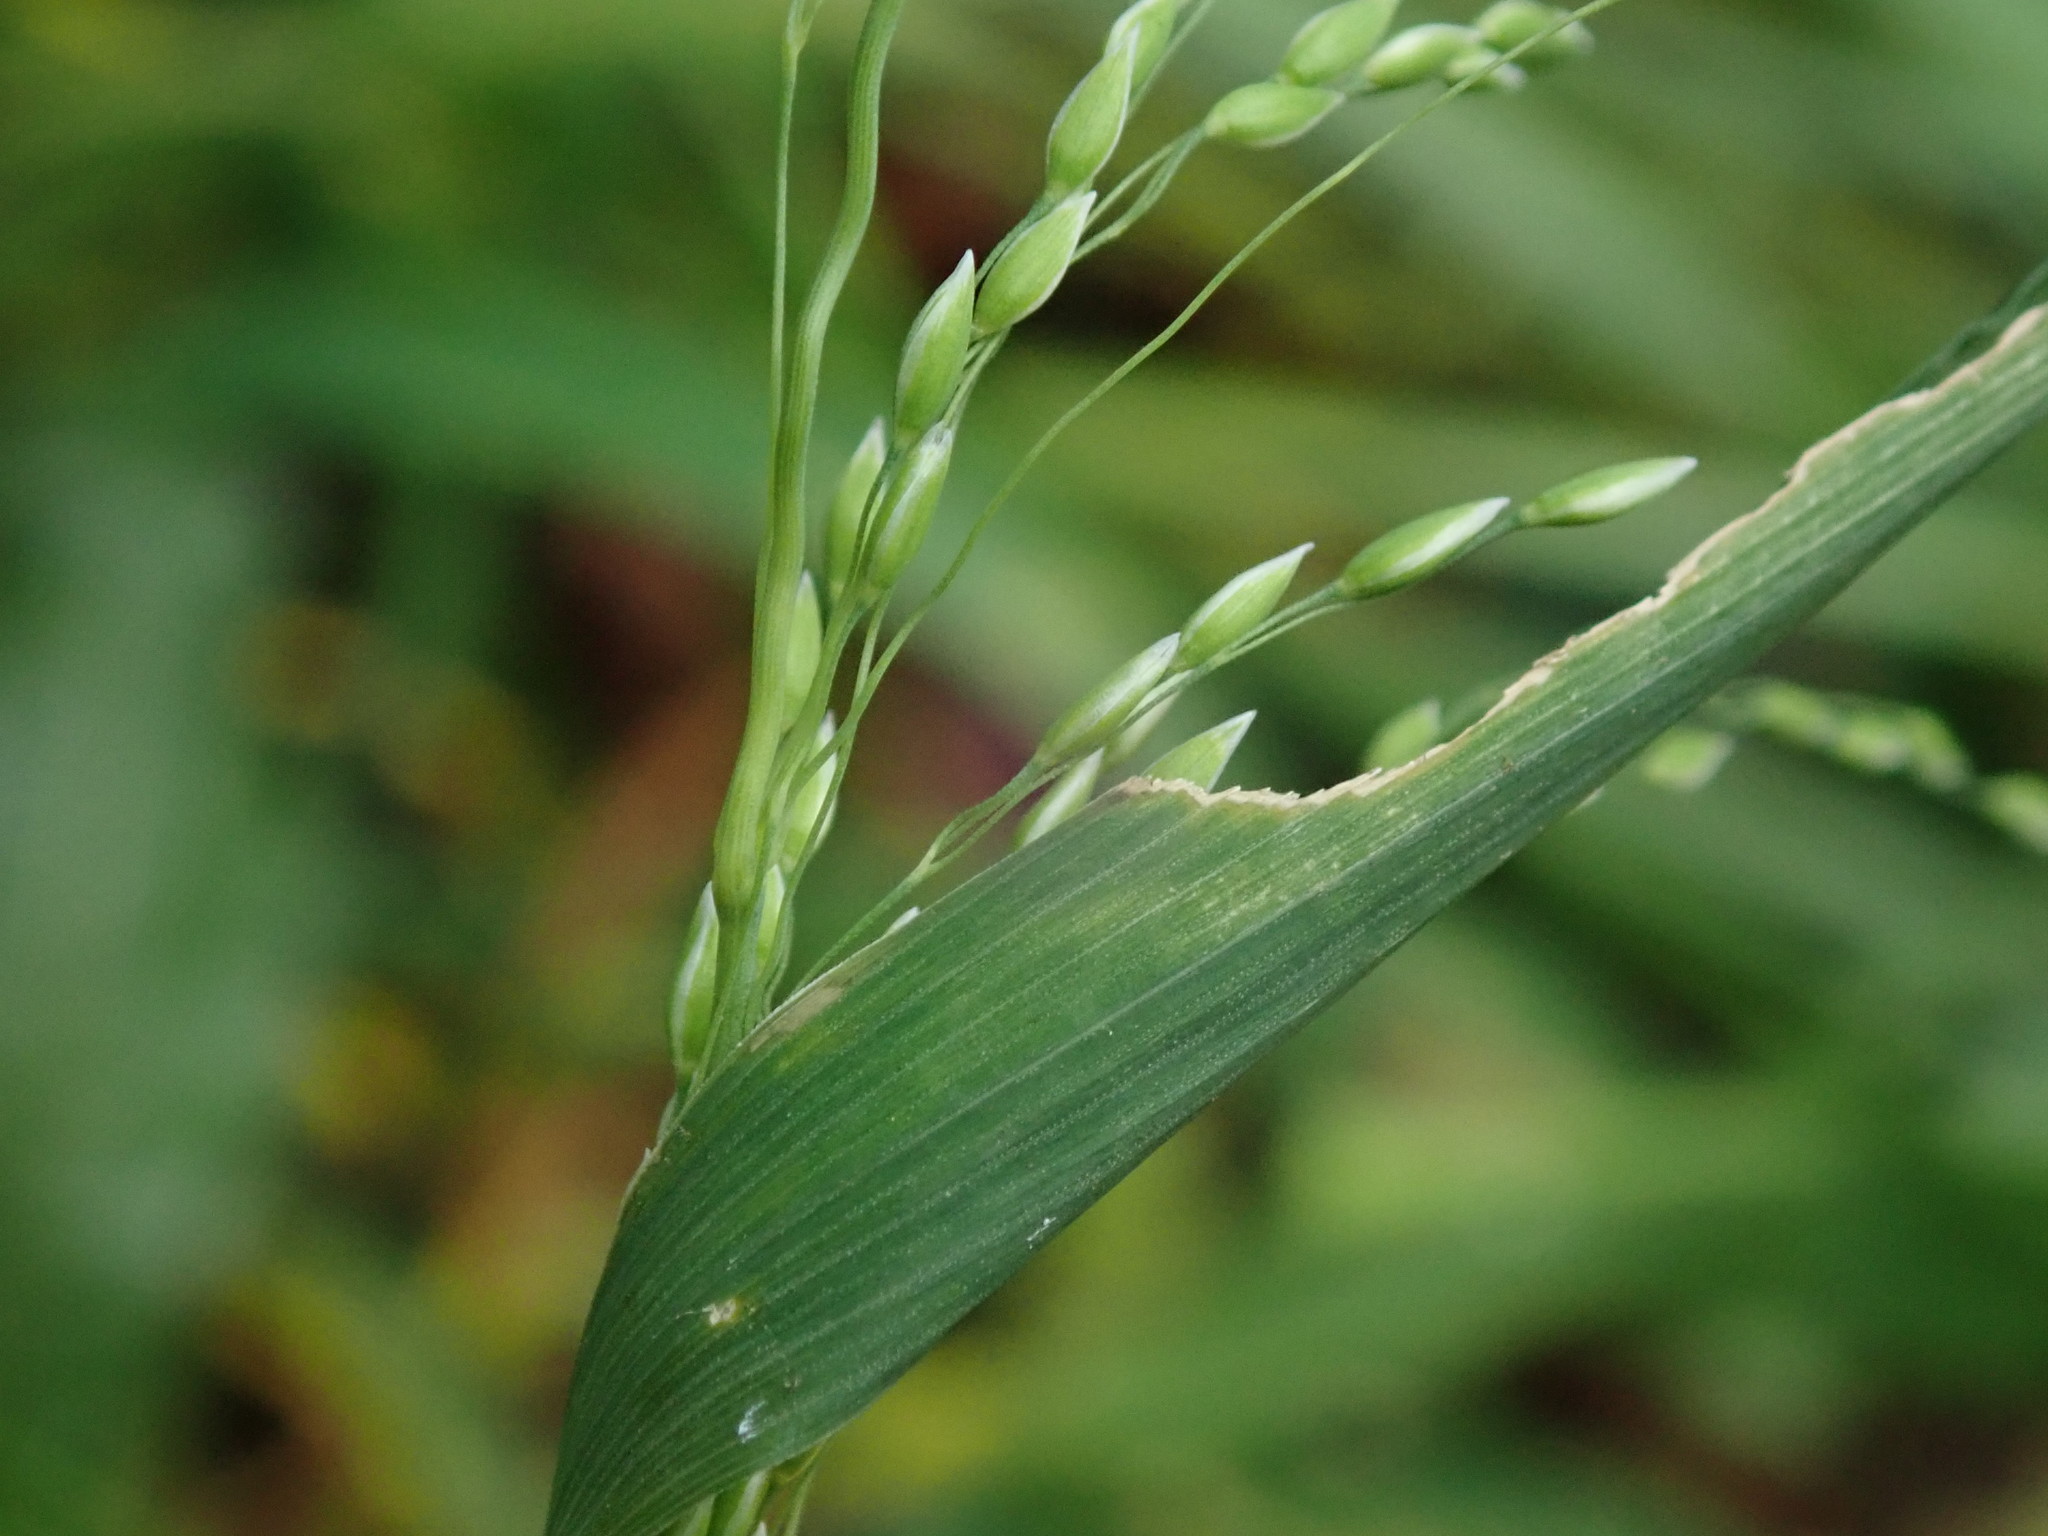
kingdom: Plantae
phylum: Tracheophyta
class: Liliopsida
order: Poales
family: Poaceae
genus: Milium
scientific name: Milium effusum
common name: Wood millet
